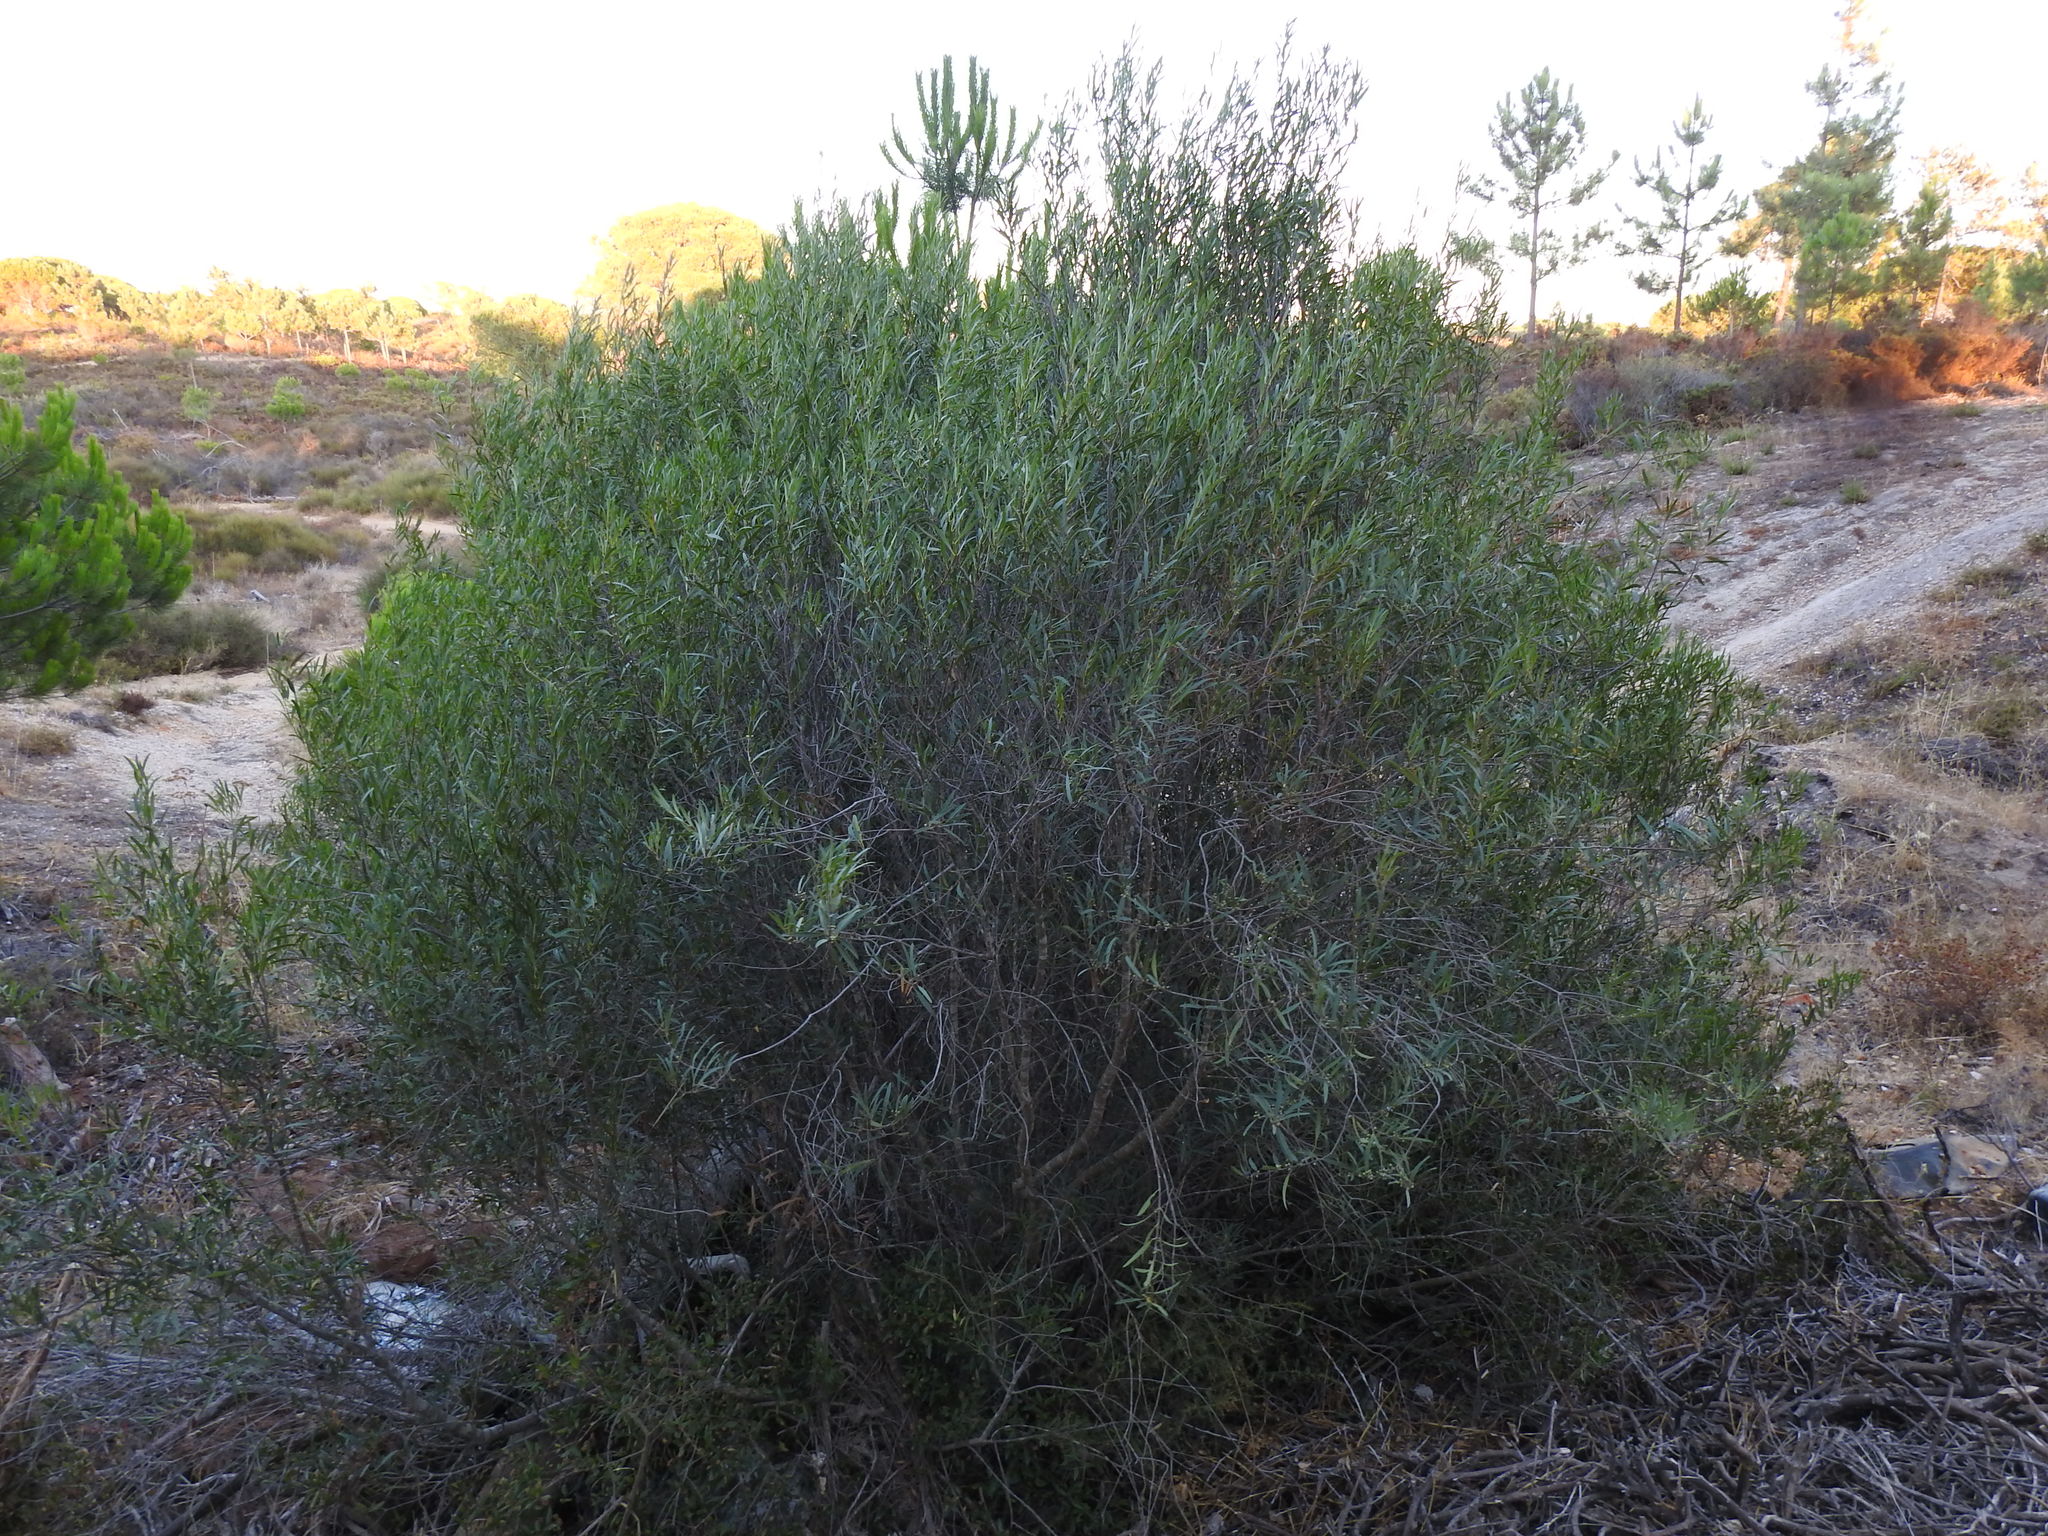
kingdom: Plantae
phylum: Tracheophyta
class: Magnoliopsida
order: Lamiales
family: Oleaceae
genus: Phillyrea
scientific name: Phillyrea angustifolia
